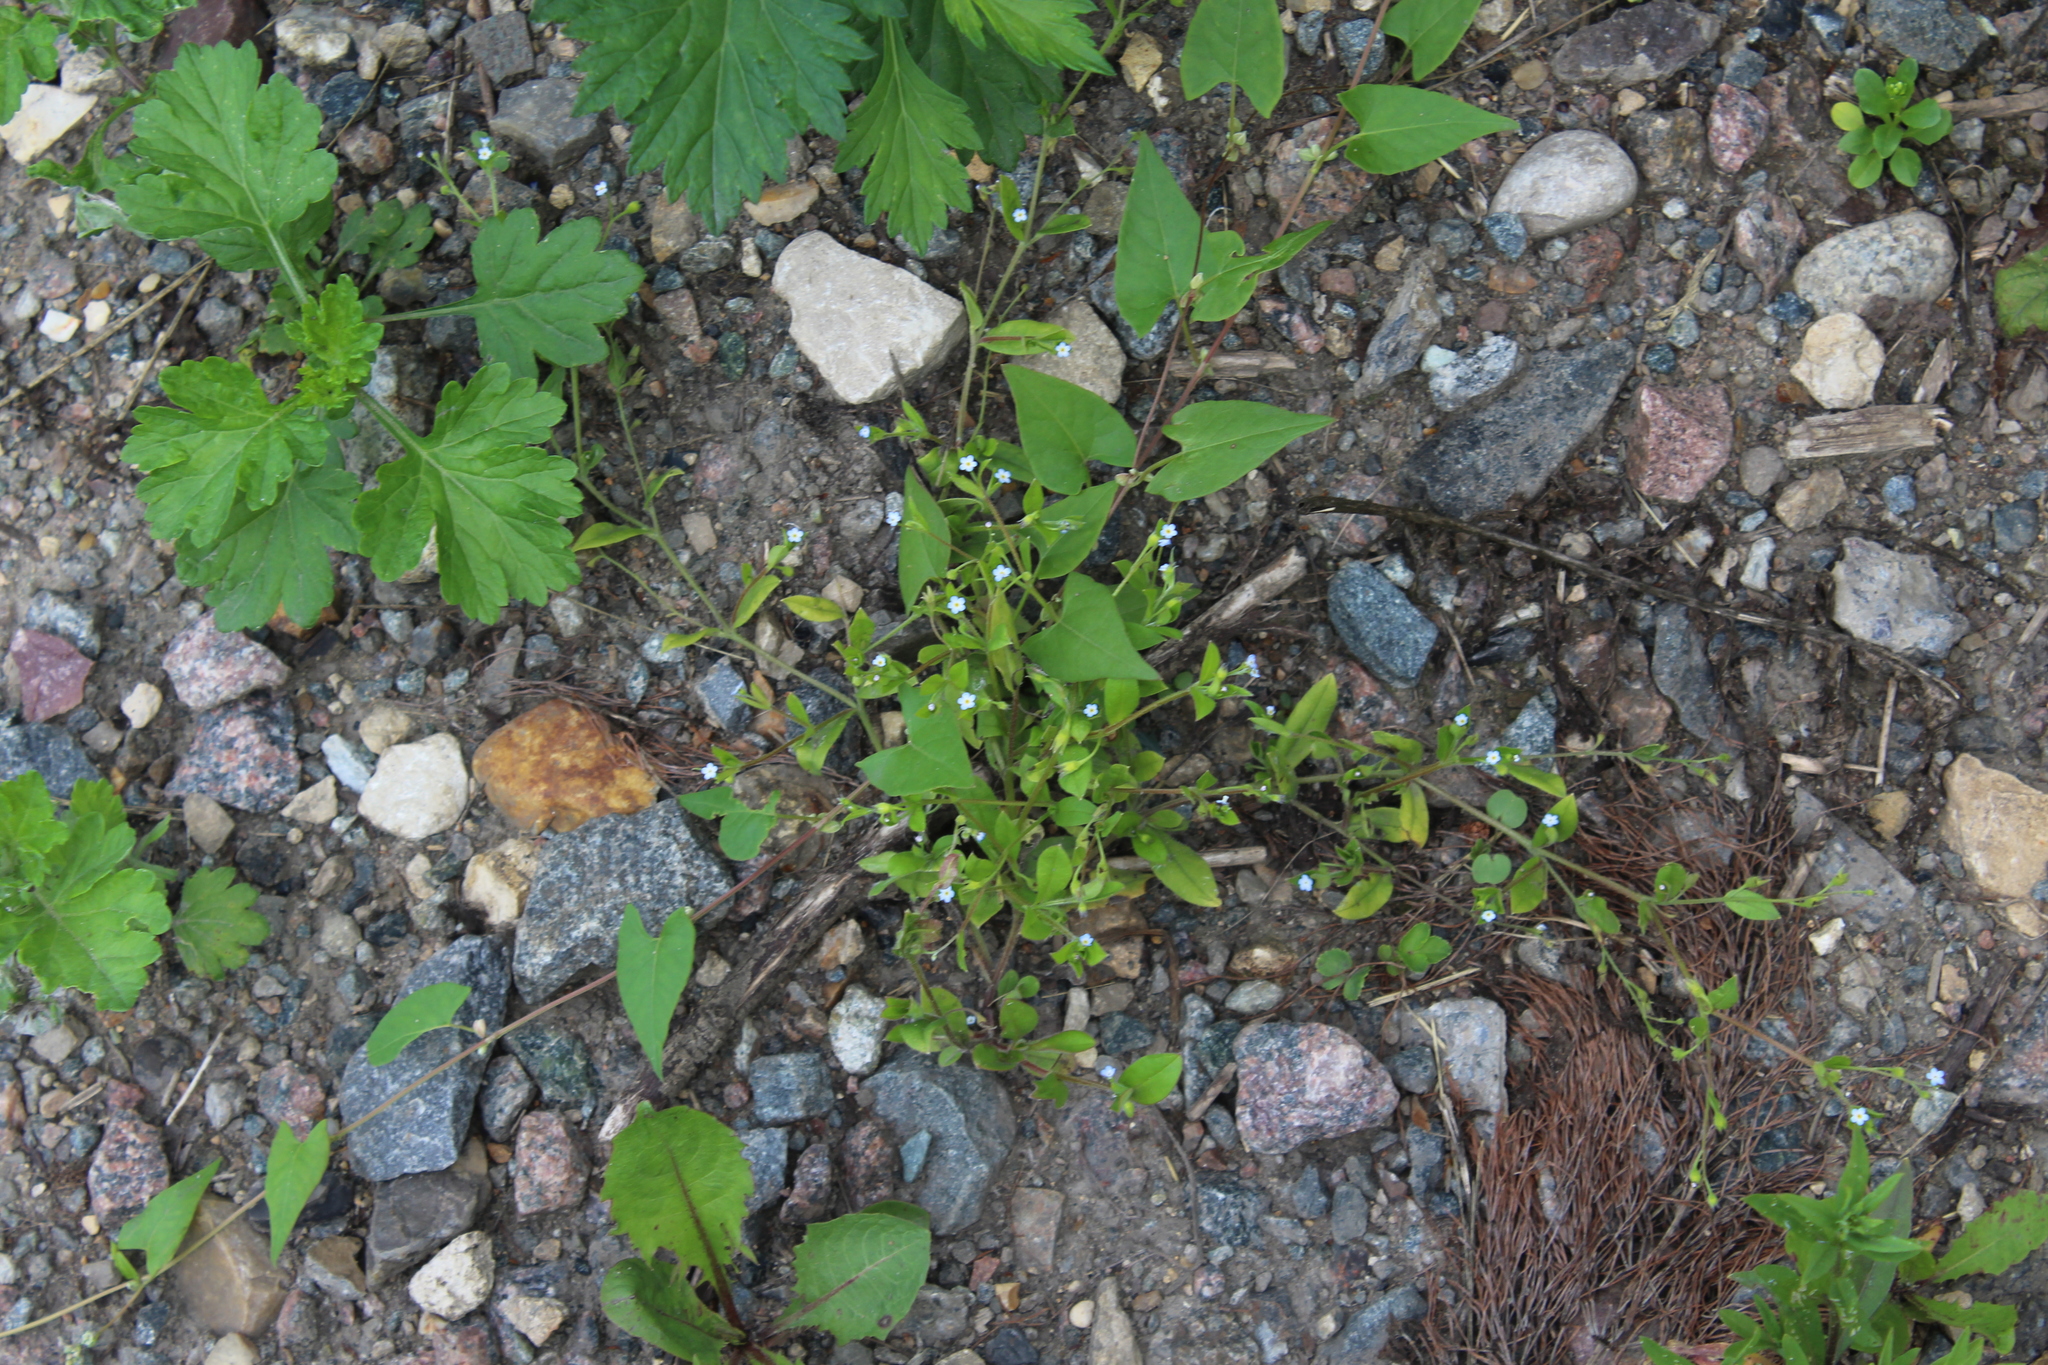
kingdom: Plantae
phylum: Tracheophyta
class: Magnoliopsida
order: Boraginales
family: Boraginaceae
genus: Myosotis
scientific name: Myosotis sparsiflora
